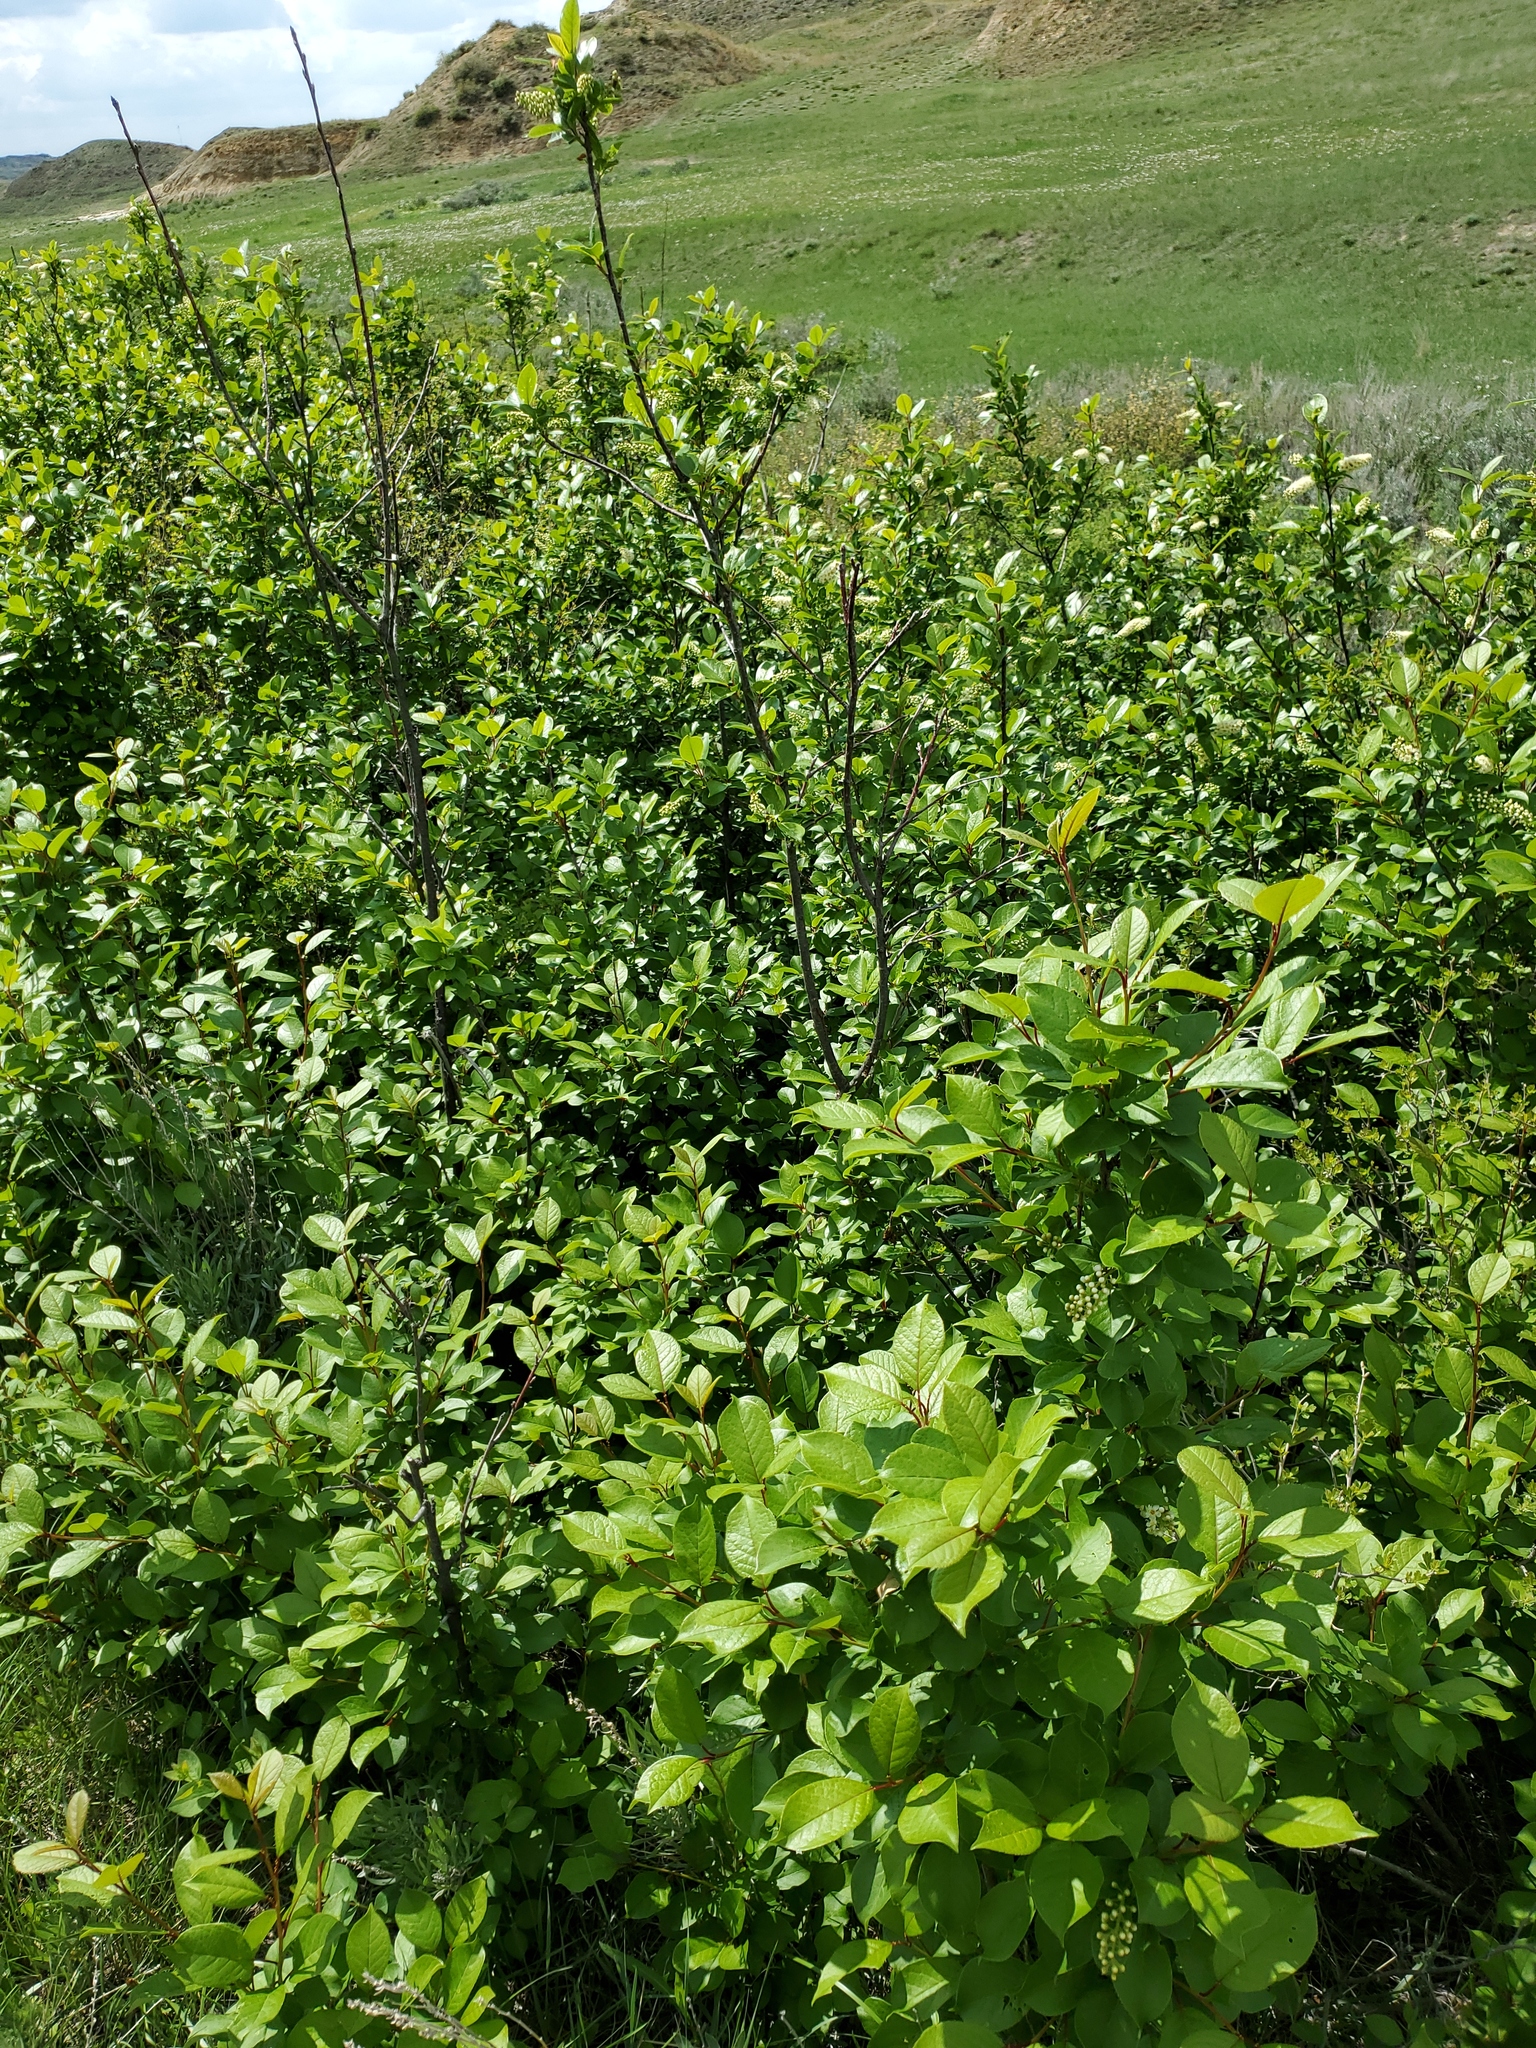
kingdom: Plantae
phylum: Tracheophyta
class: Magnoliopsida
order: Rosales
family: Rosaceae
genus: Prunus
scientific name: Prunus virginiana
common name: Chokecherry
